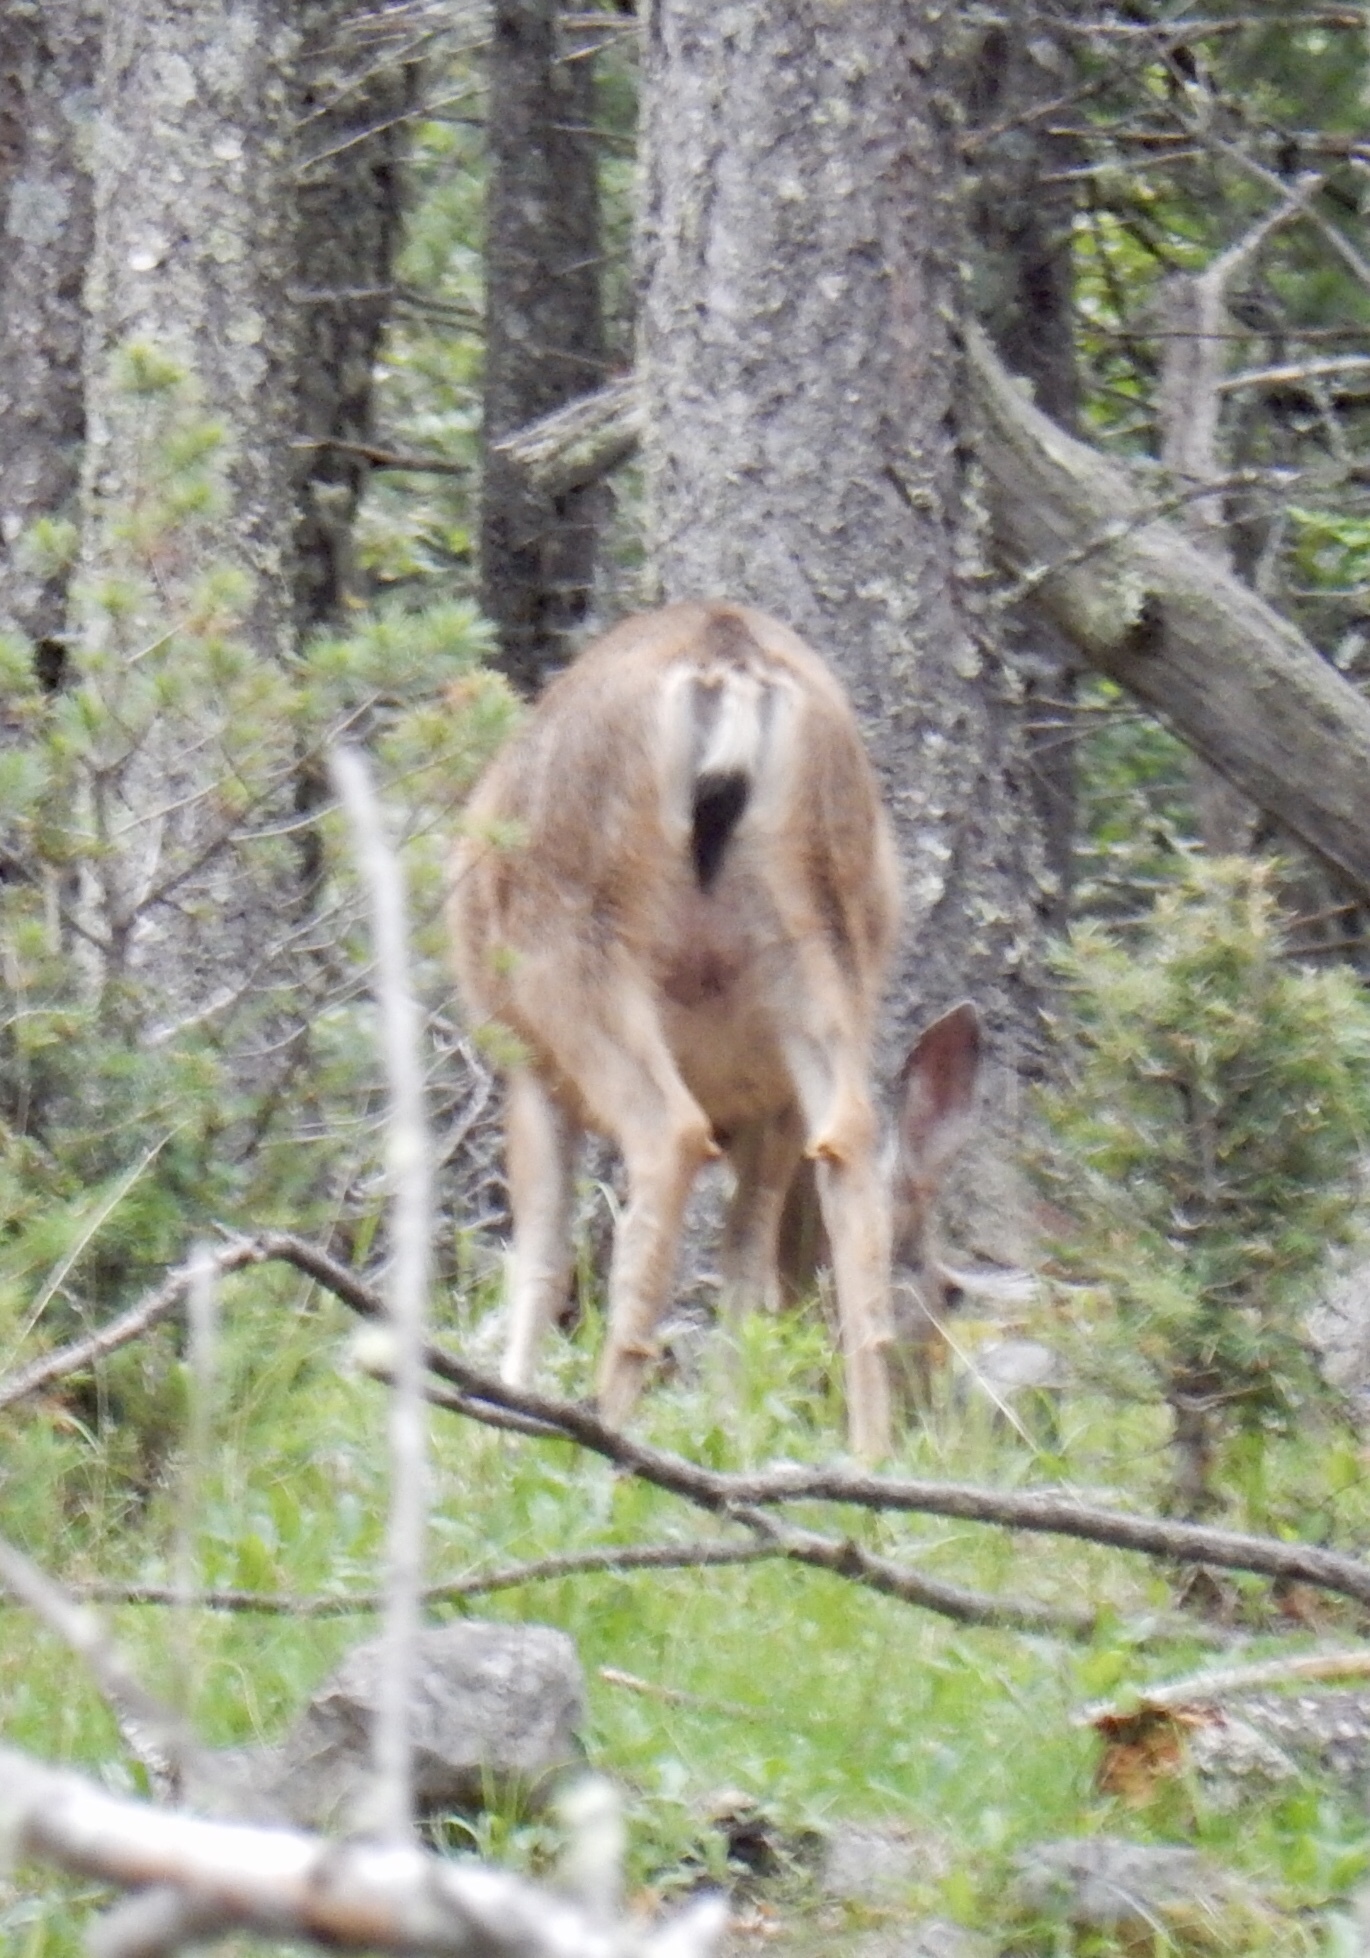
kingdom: Animalia
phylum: Chordata
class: Mammalia
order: Artiodactyla
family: Cervidae
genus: Odocoileus
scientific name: Odocoileus hemionus
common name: Mule deer
